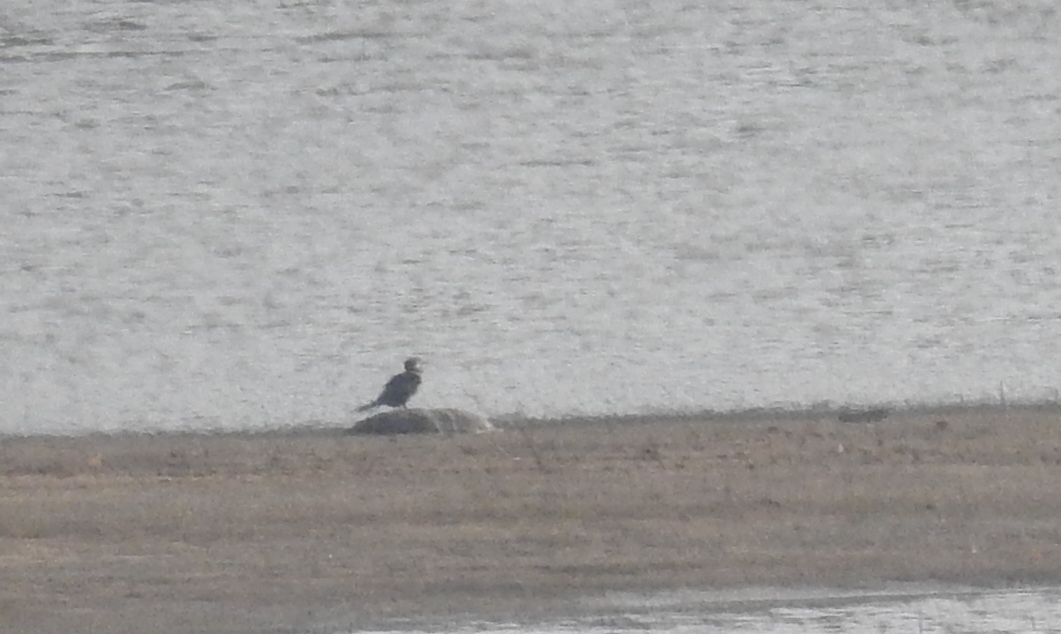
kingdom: Animalia
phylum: Chordata
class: Aves
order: Suliformes
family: Phalacrocoracidae
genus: Microcarbo
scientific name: Microcarbo niger
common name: Little cormorant
